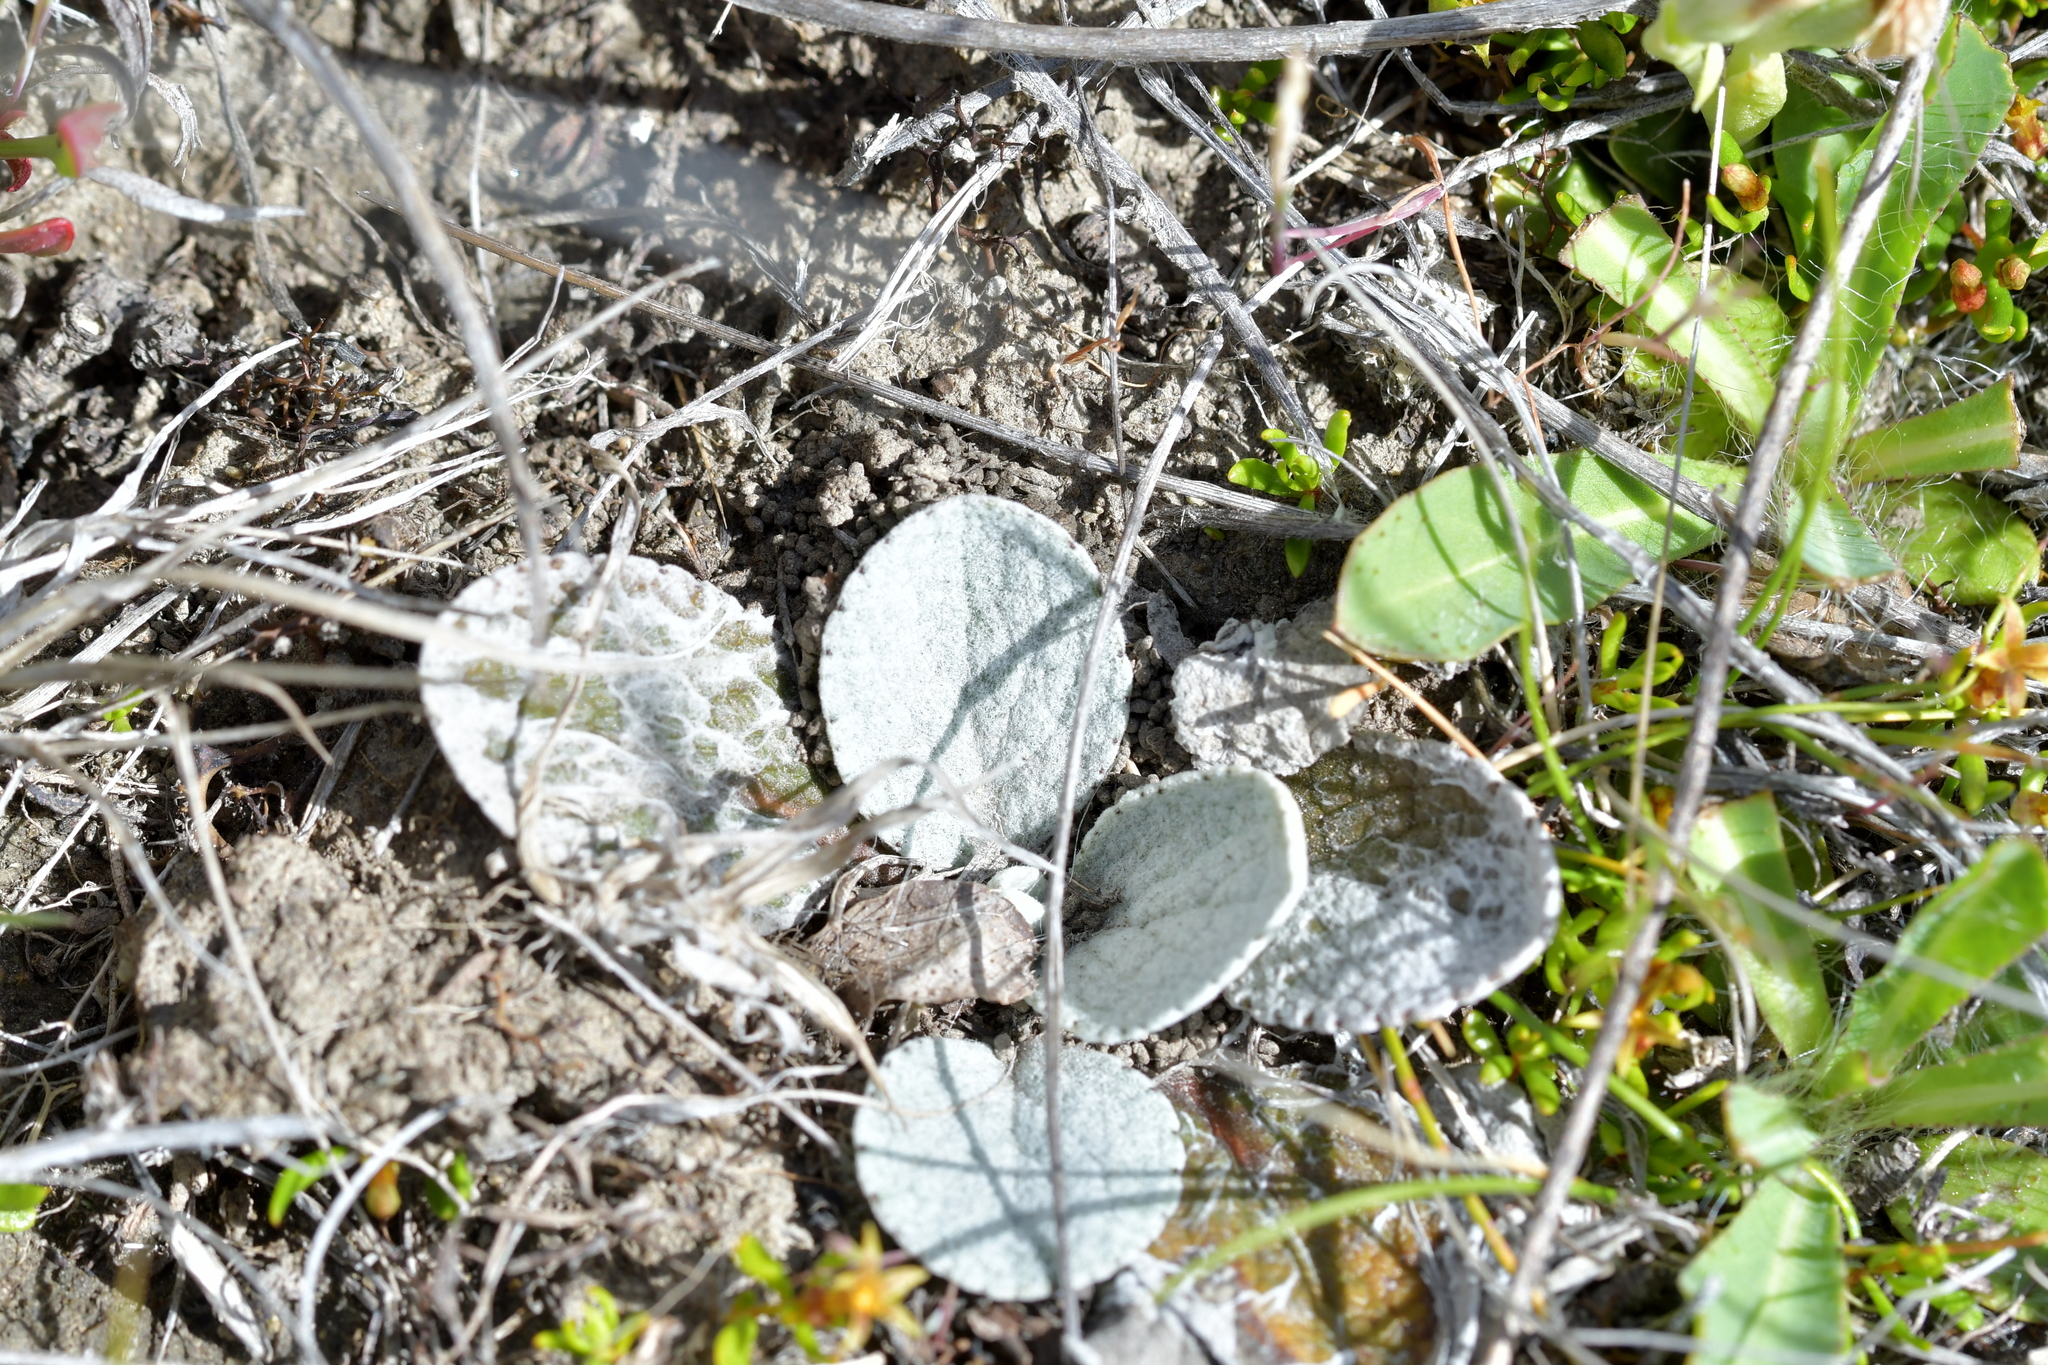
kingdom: Plantae
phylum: Tracheophyta
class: Magnoliopsida
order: Asterales
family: Asteraceae
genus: Brachyglottis
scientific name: Brachyglottis haastii
